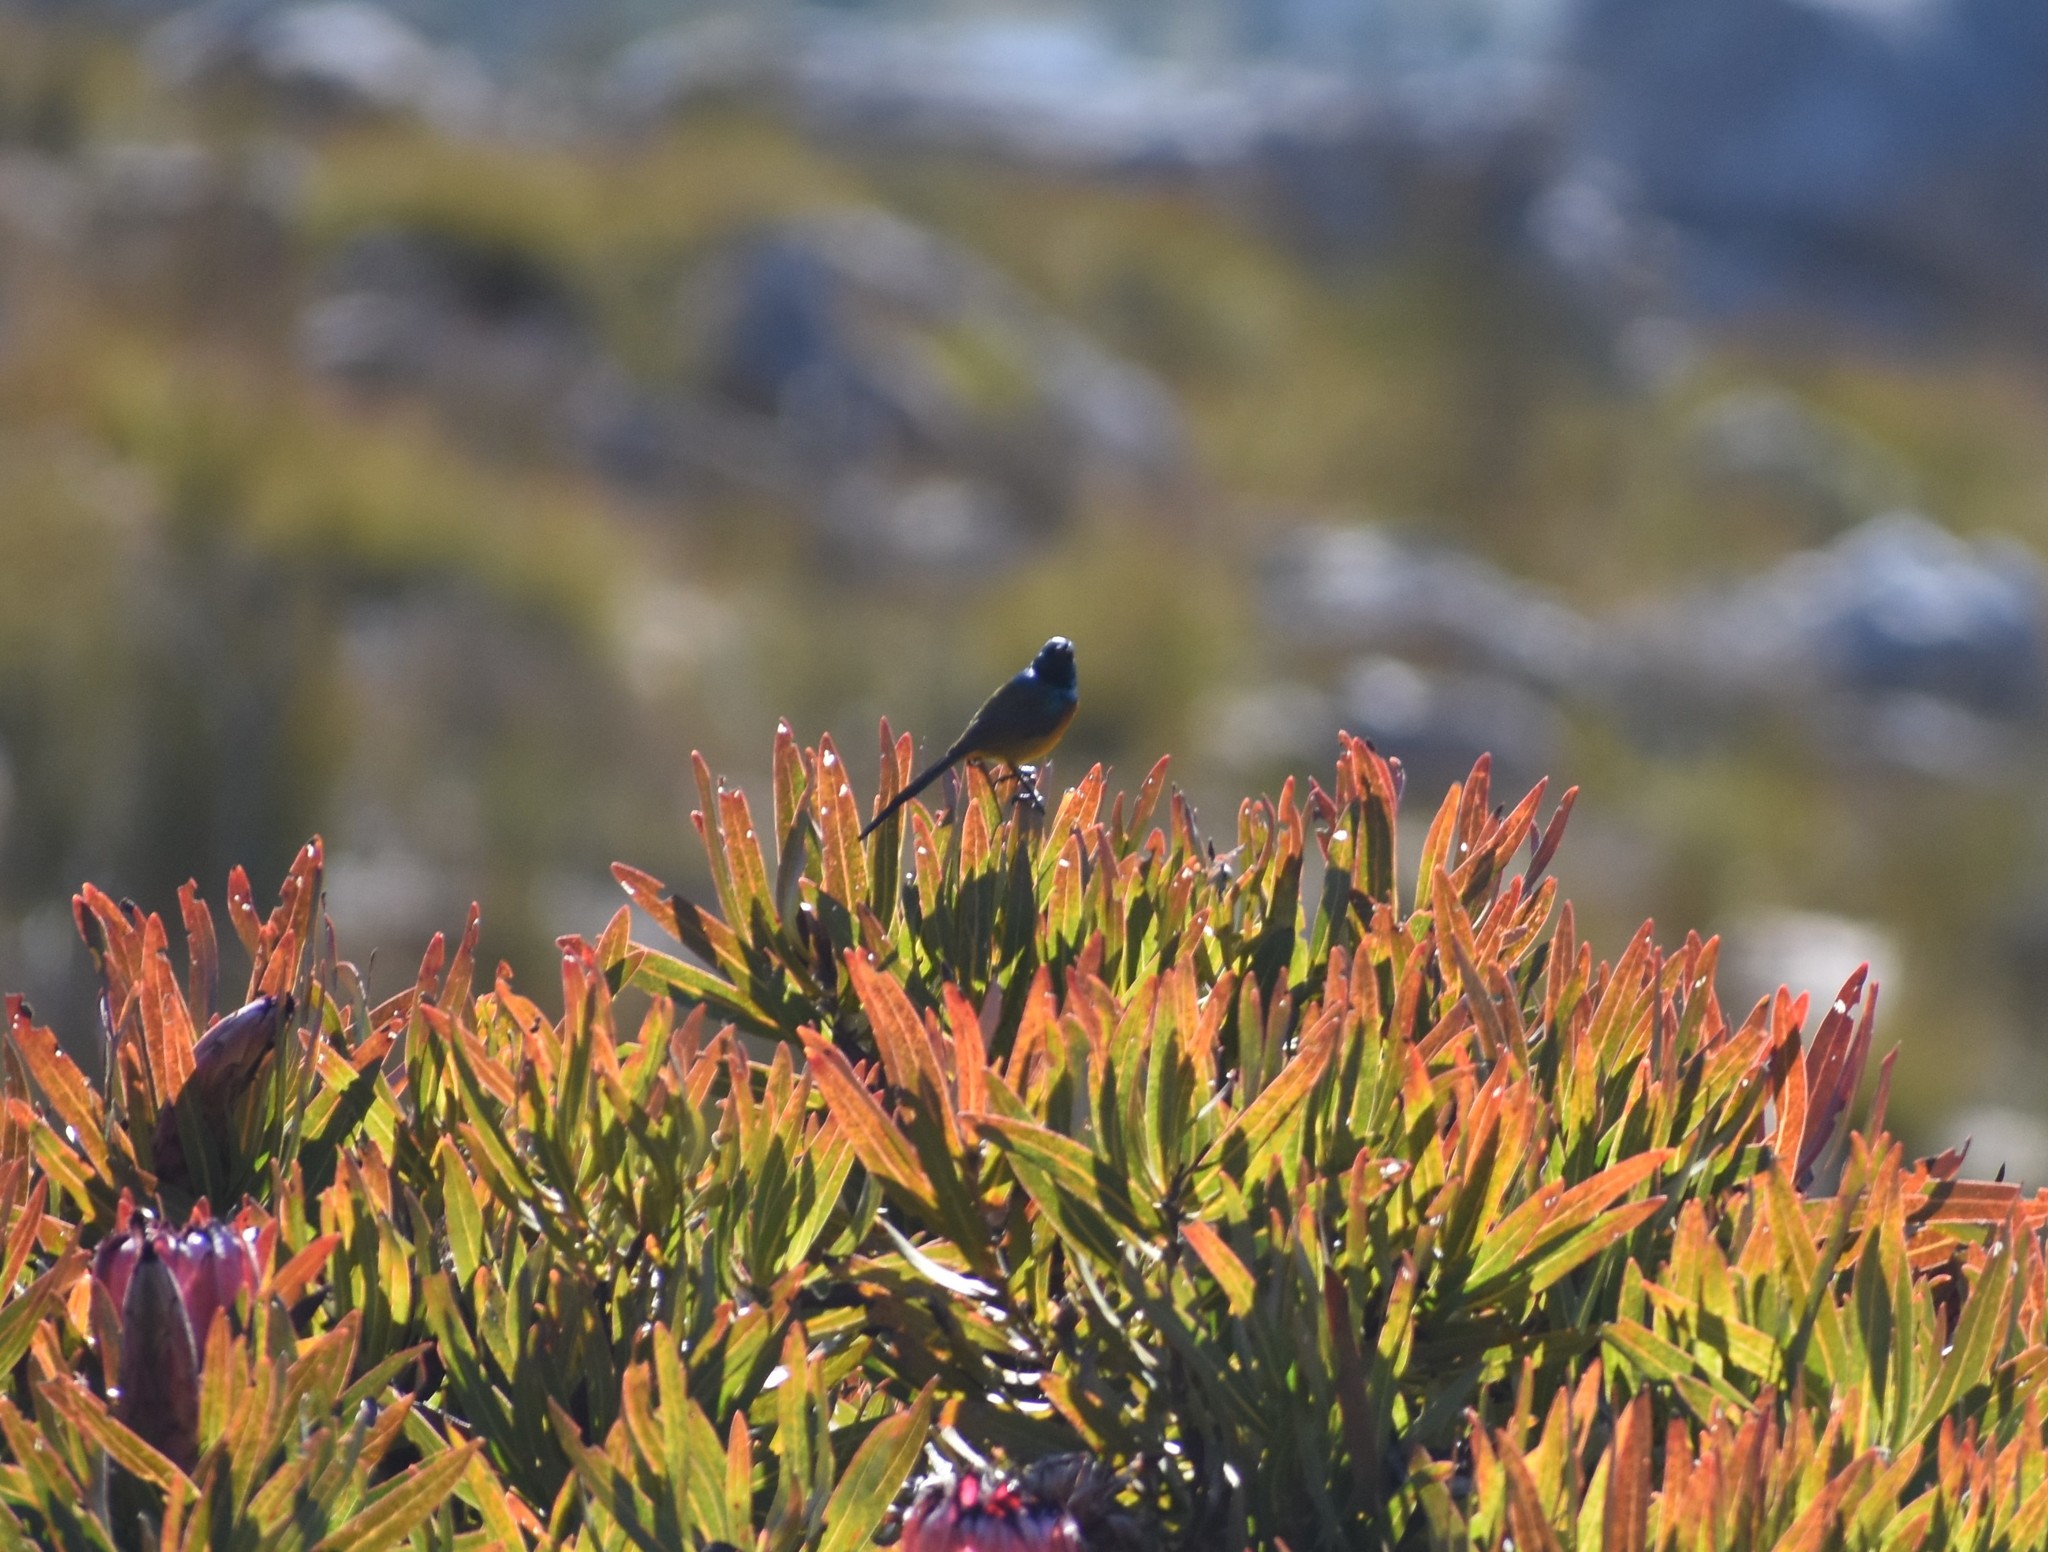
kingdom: Animalia
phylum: Chordata
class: Aves
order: Passeriformes
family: Nectariniidae
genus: Anthobaphes
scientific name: Anthobaphes violacea
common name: Orange-breasted sunbird
